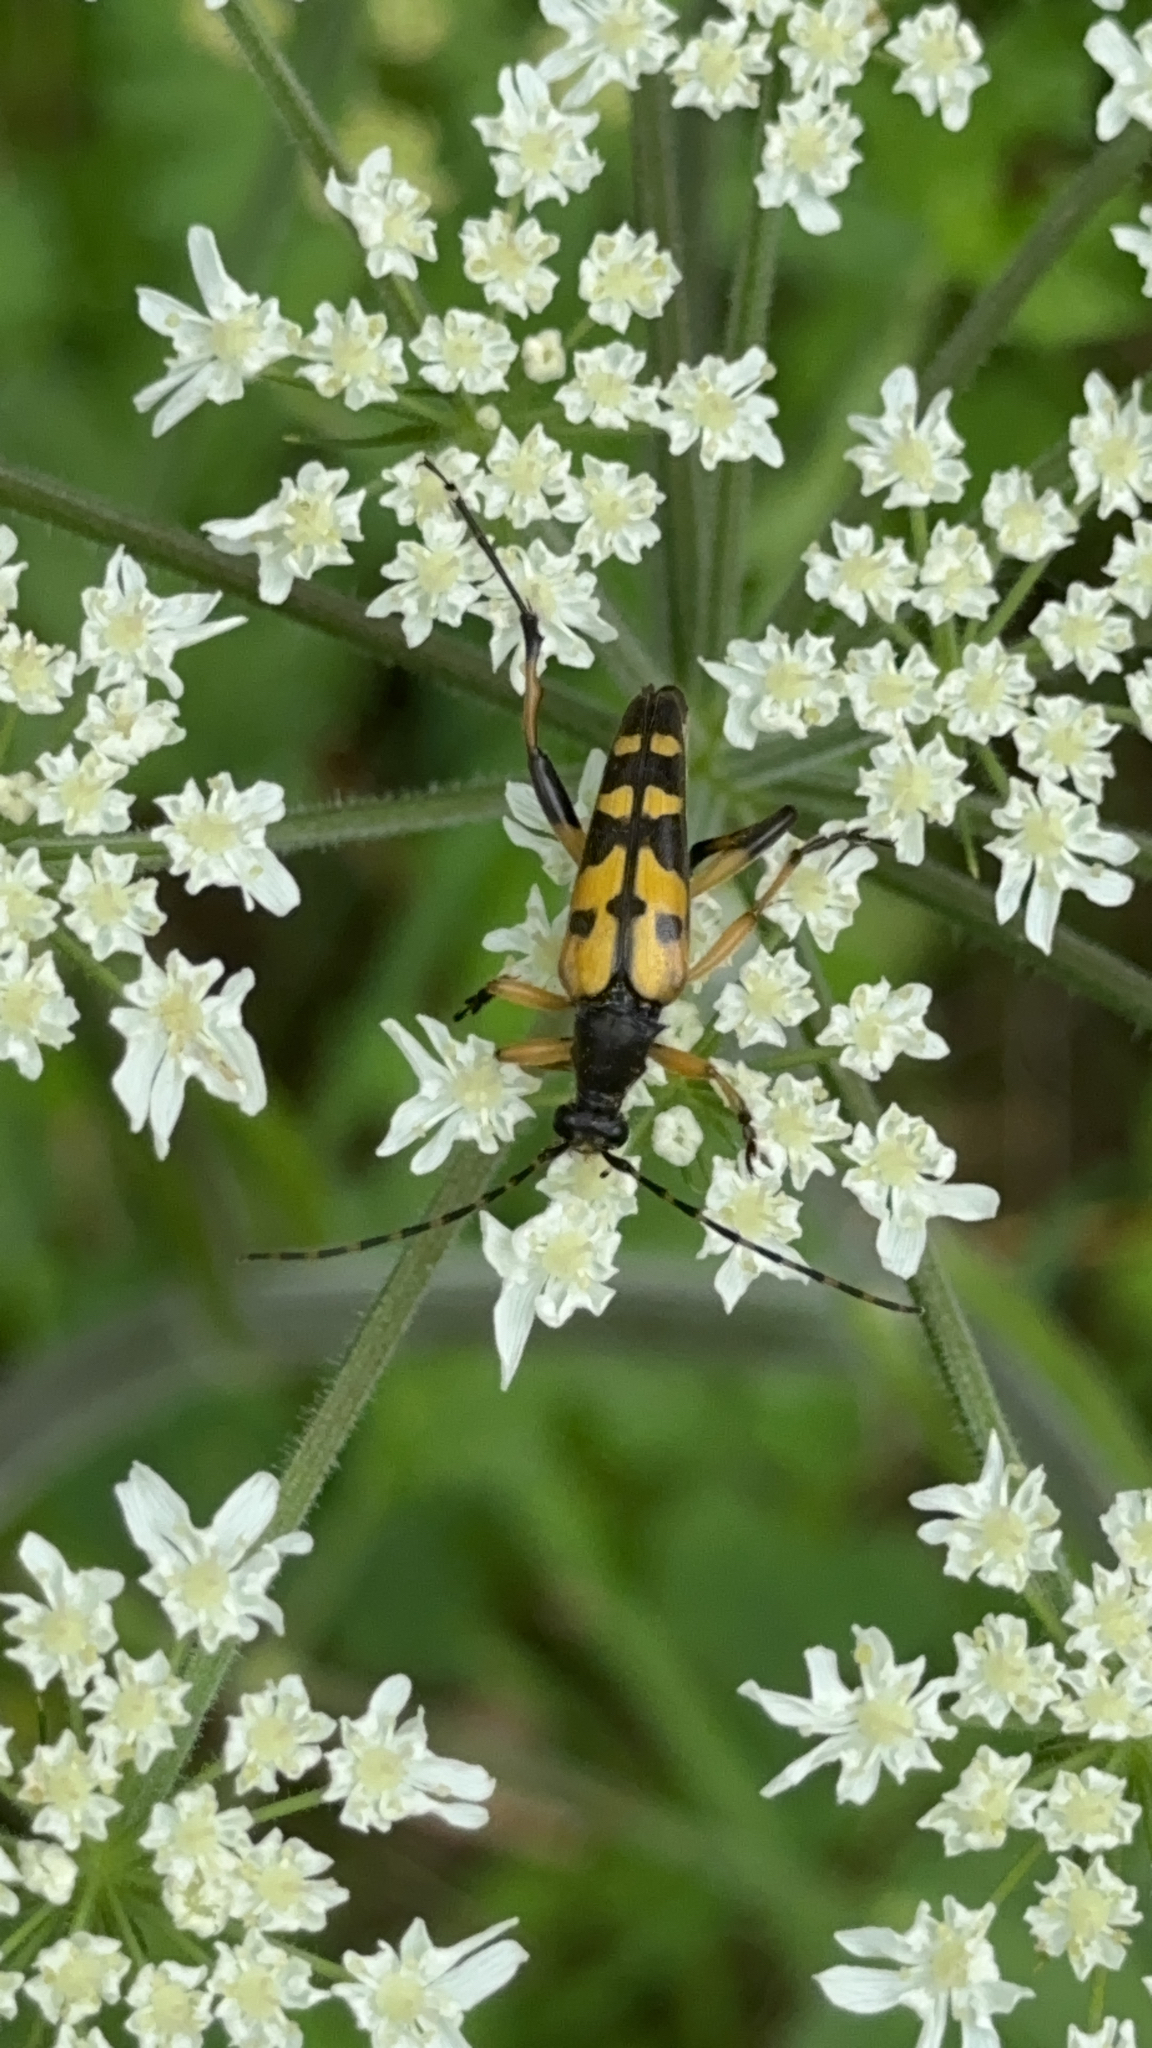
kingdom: Animalia
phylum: Arthropoda
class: Insecta
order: Coleoptera
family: Cerambycidae
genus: Rutpela
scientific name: Rutpela maculata
